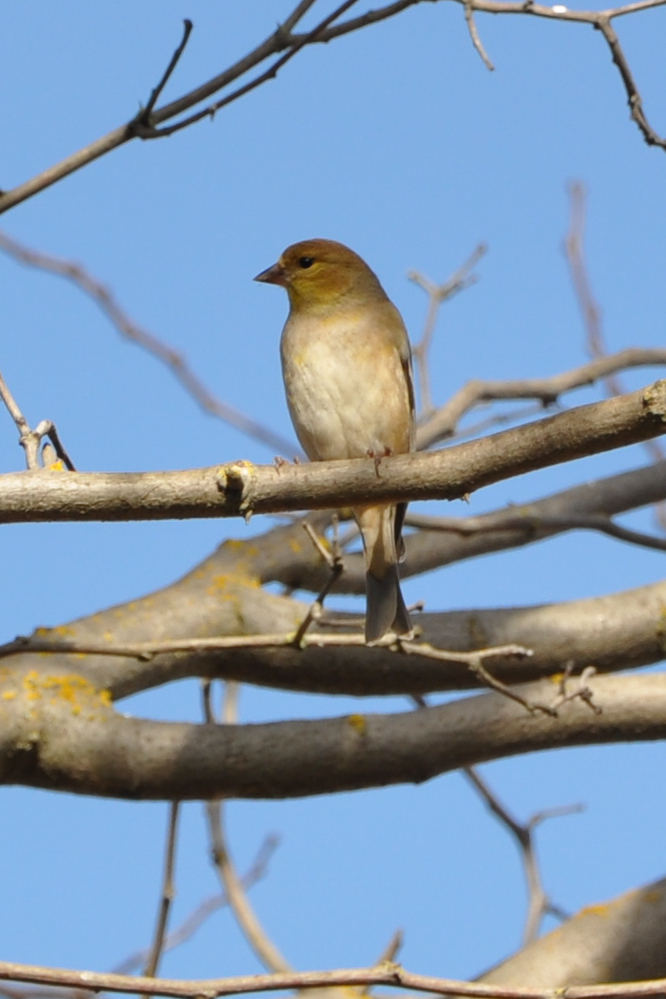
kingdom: Animalia
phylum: Chordata
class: Aves
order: Passeriformes
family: Fringillidae
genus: Spinus
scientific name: Spinus tristis
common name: American goldfinch
